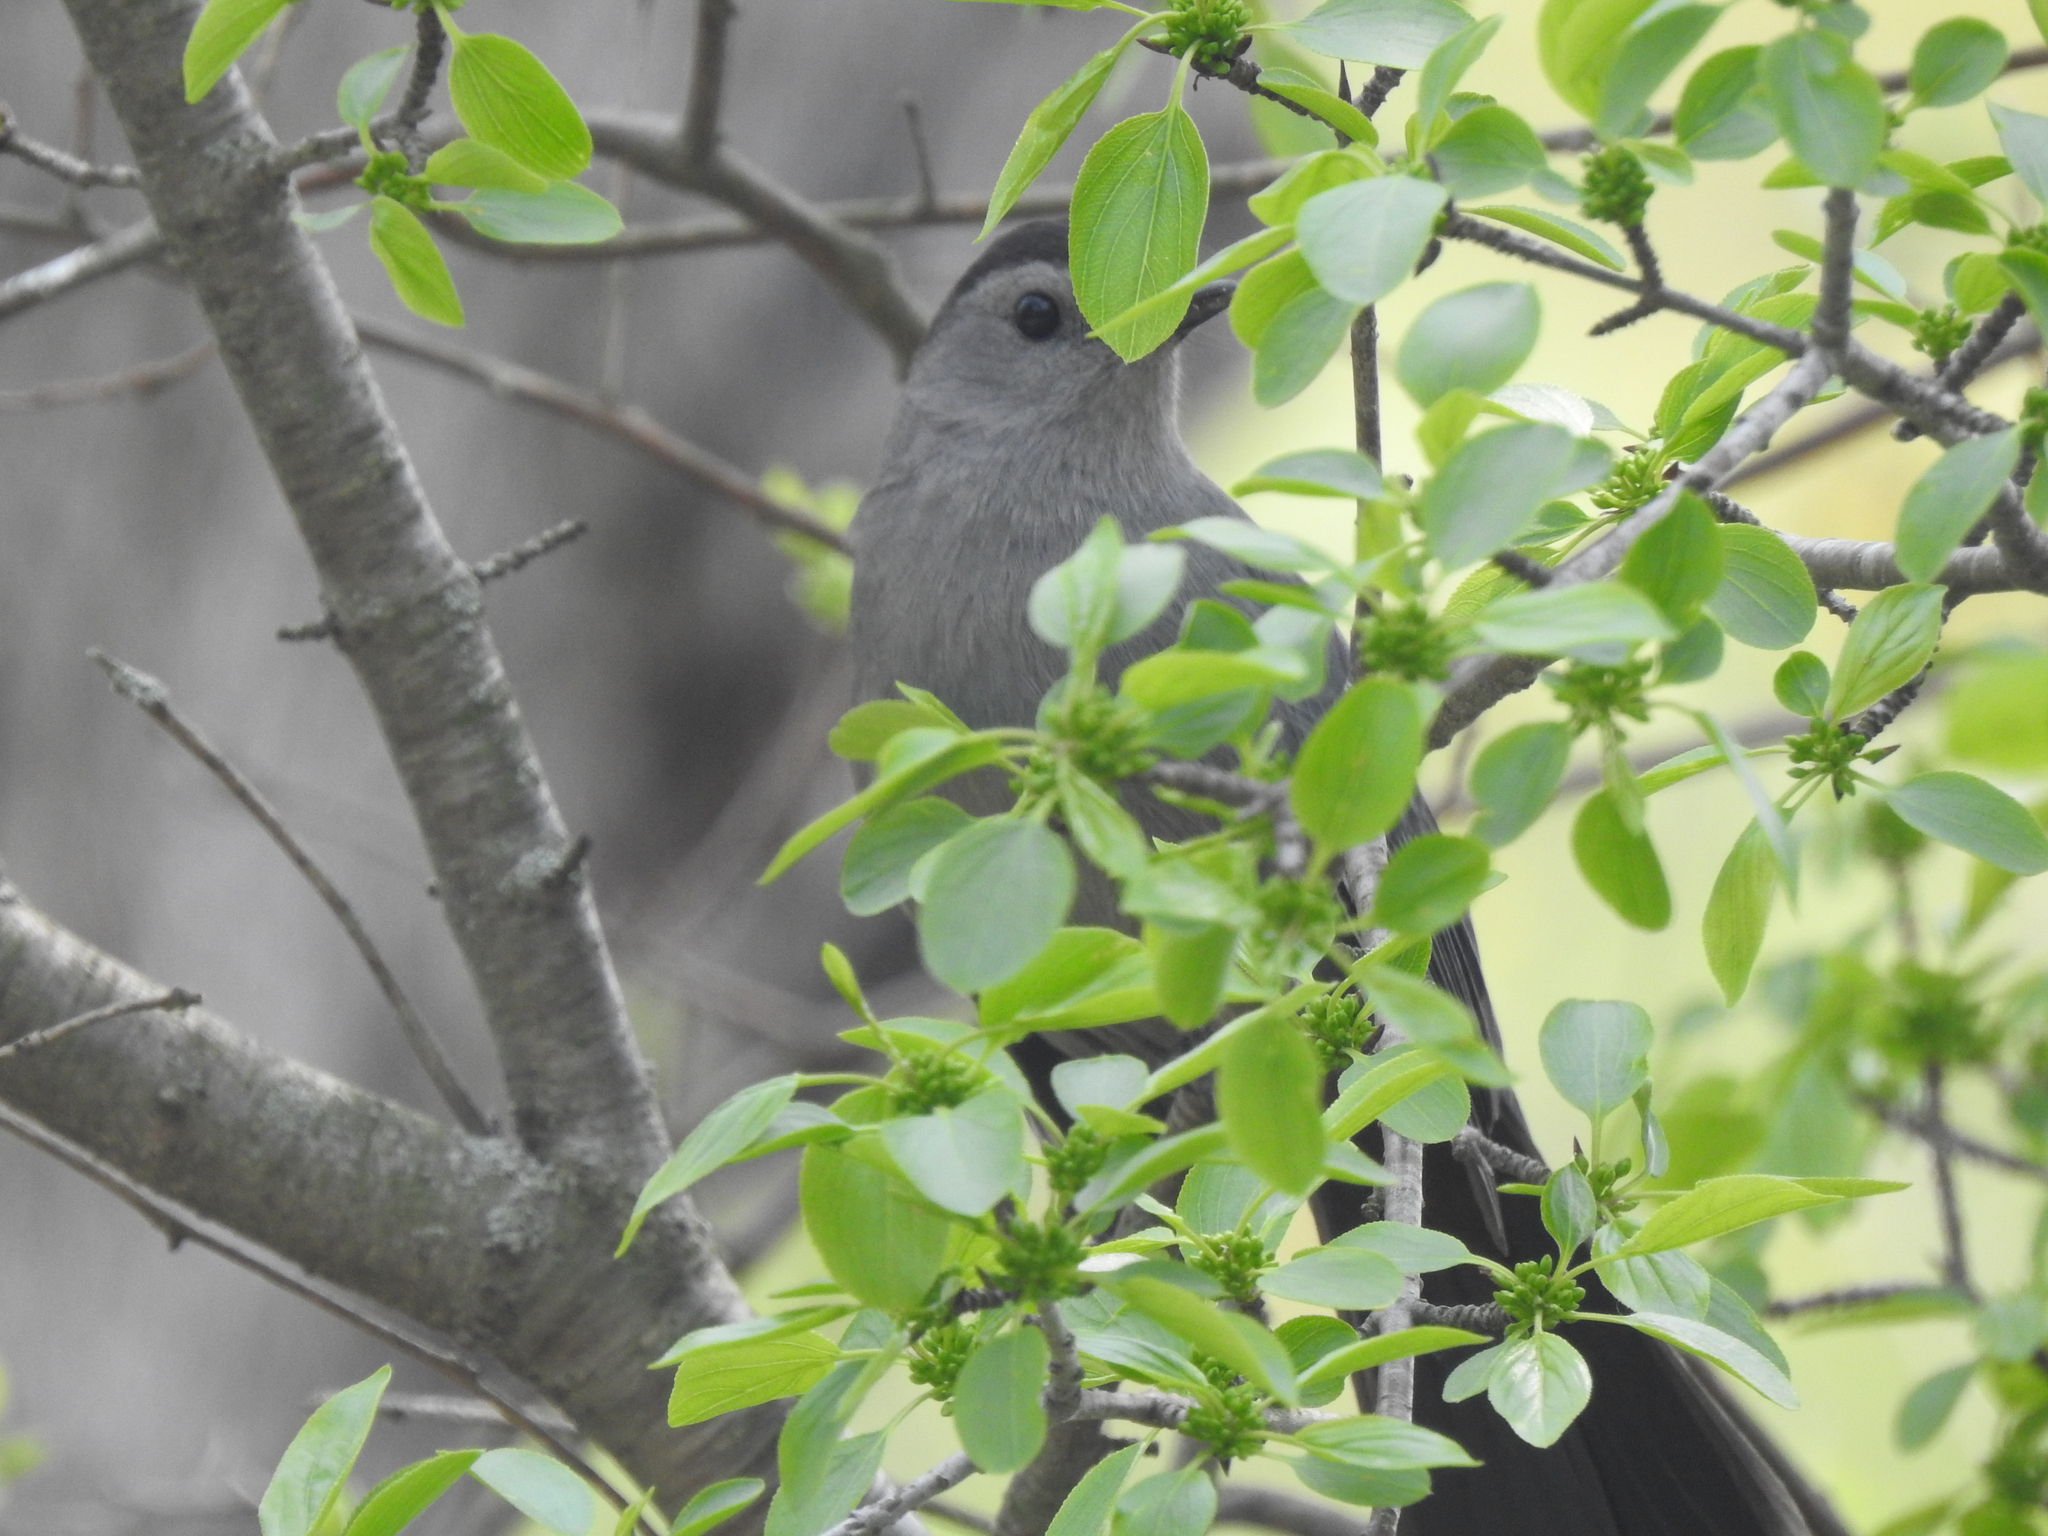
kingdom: Animalia
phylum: Chordata
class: Aves
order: Passeriformes
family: Mimidae
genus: Dumetella
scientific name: Dumetella carolinensis
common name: Gray catbird
